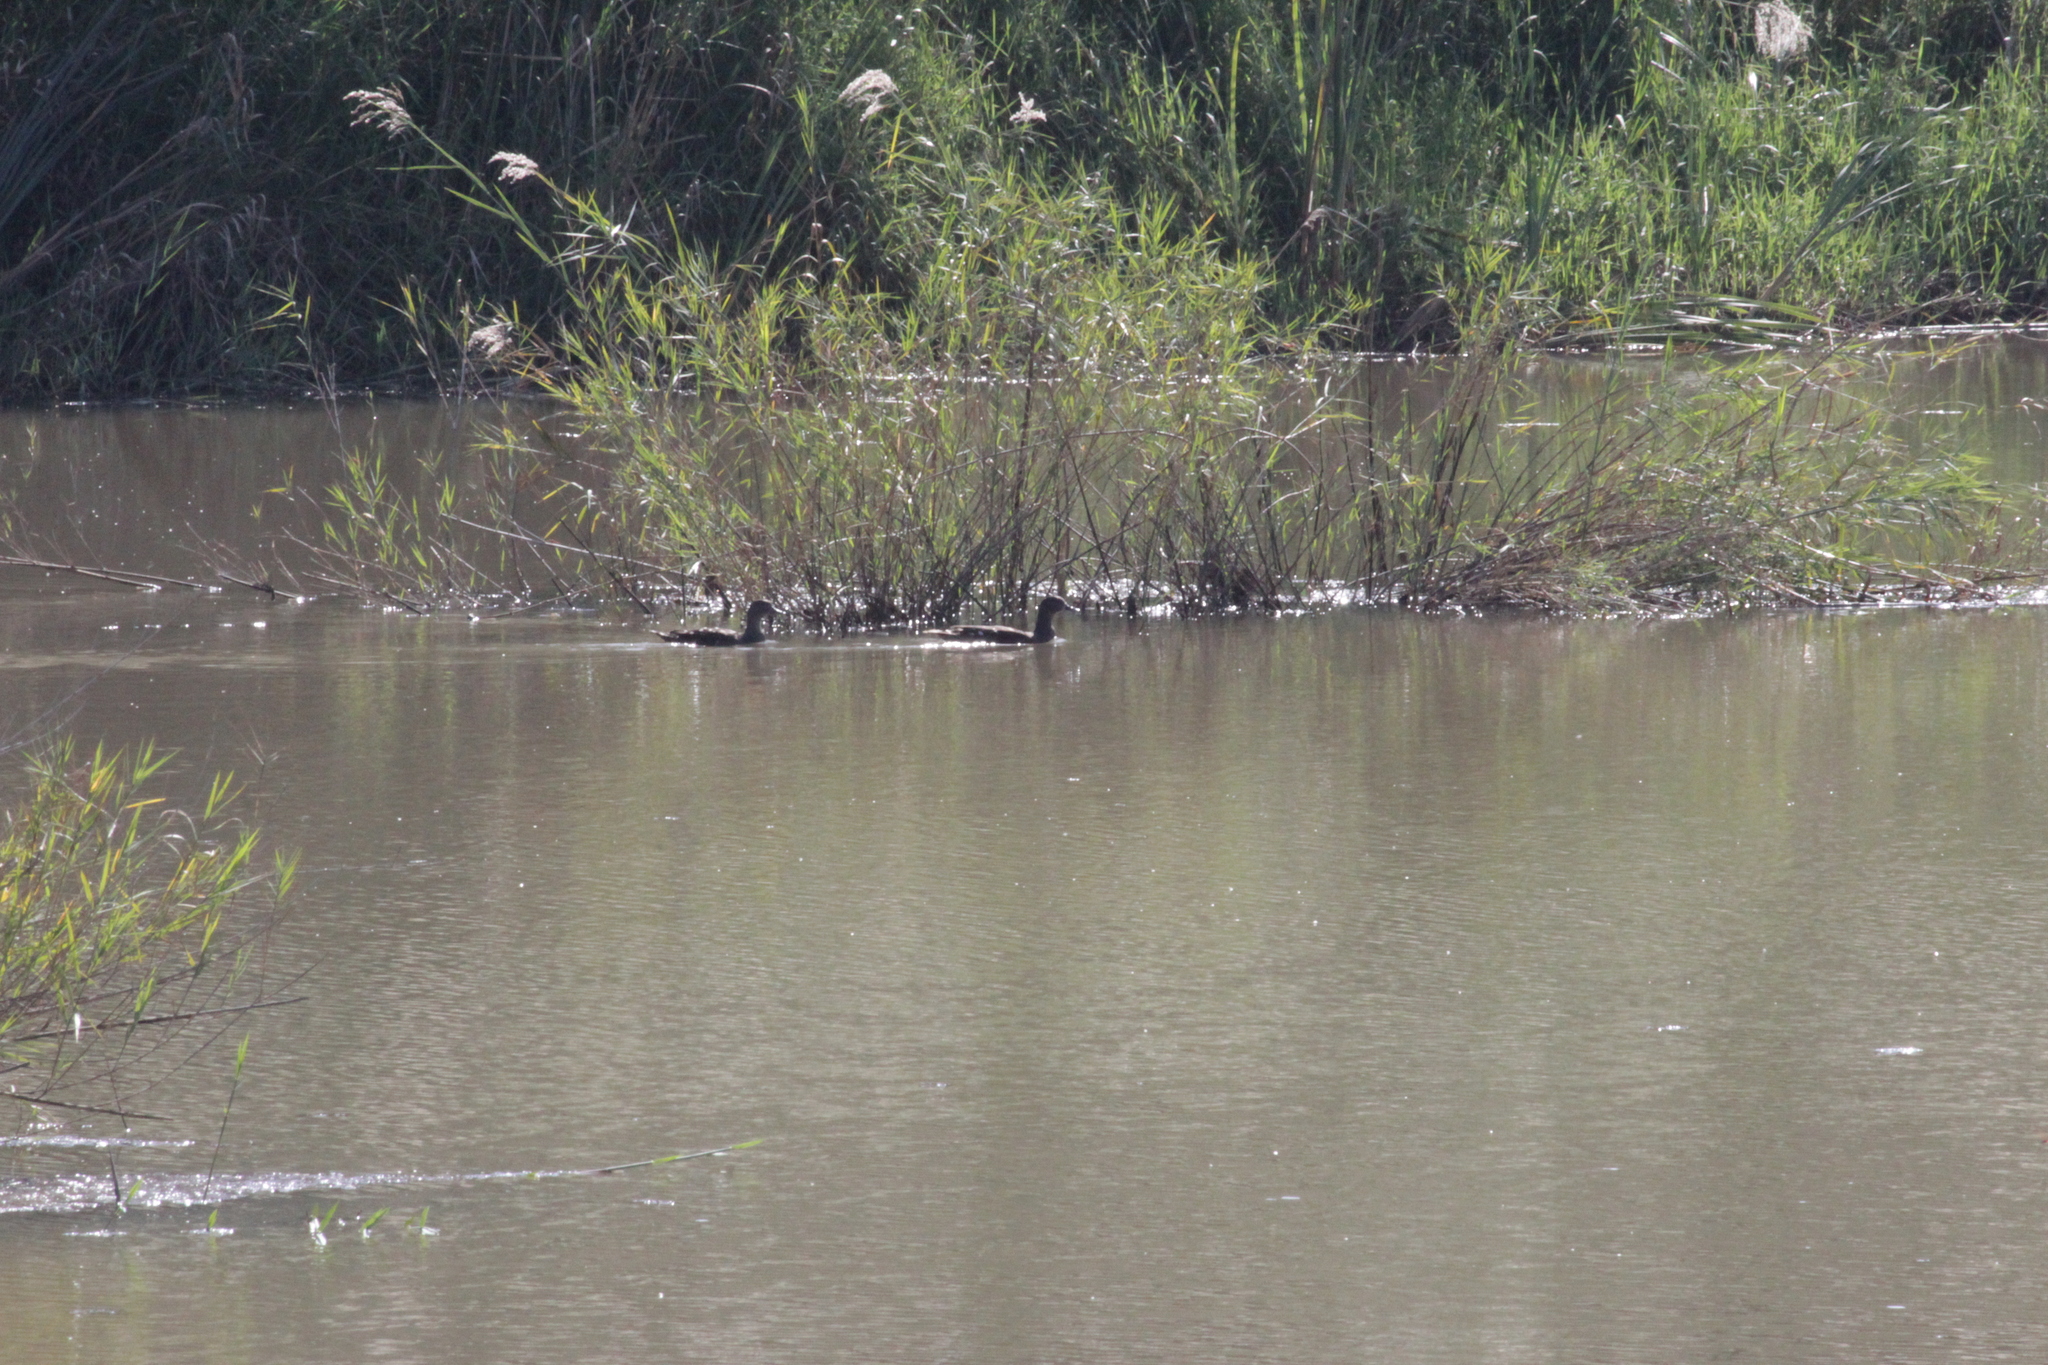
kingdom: Animalia
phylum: Chordata
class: Aves
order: Anseriformes
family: Anatidae
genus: Anas
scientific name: Anas sparsa
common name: African black duck
